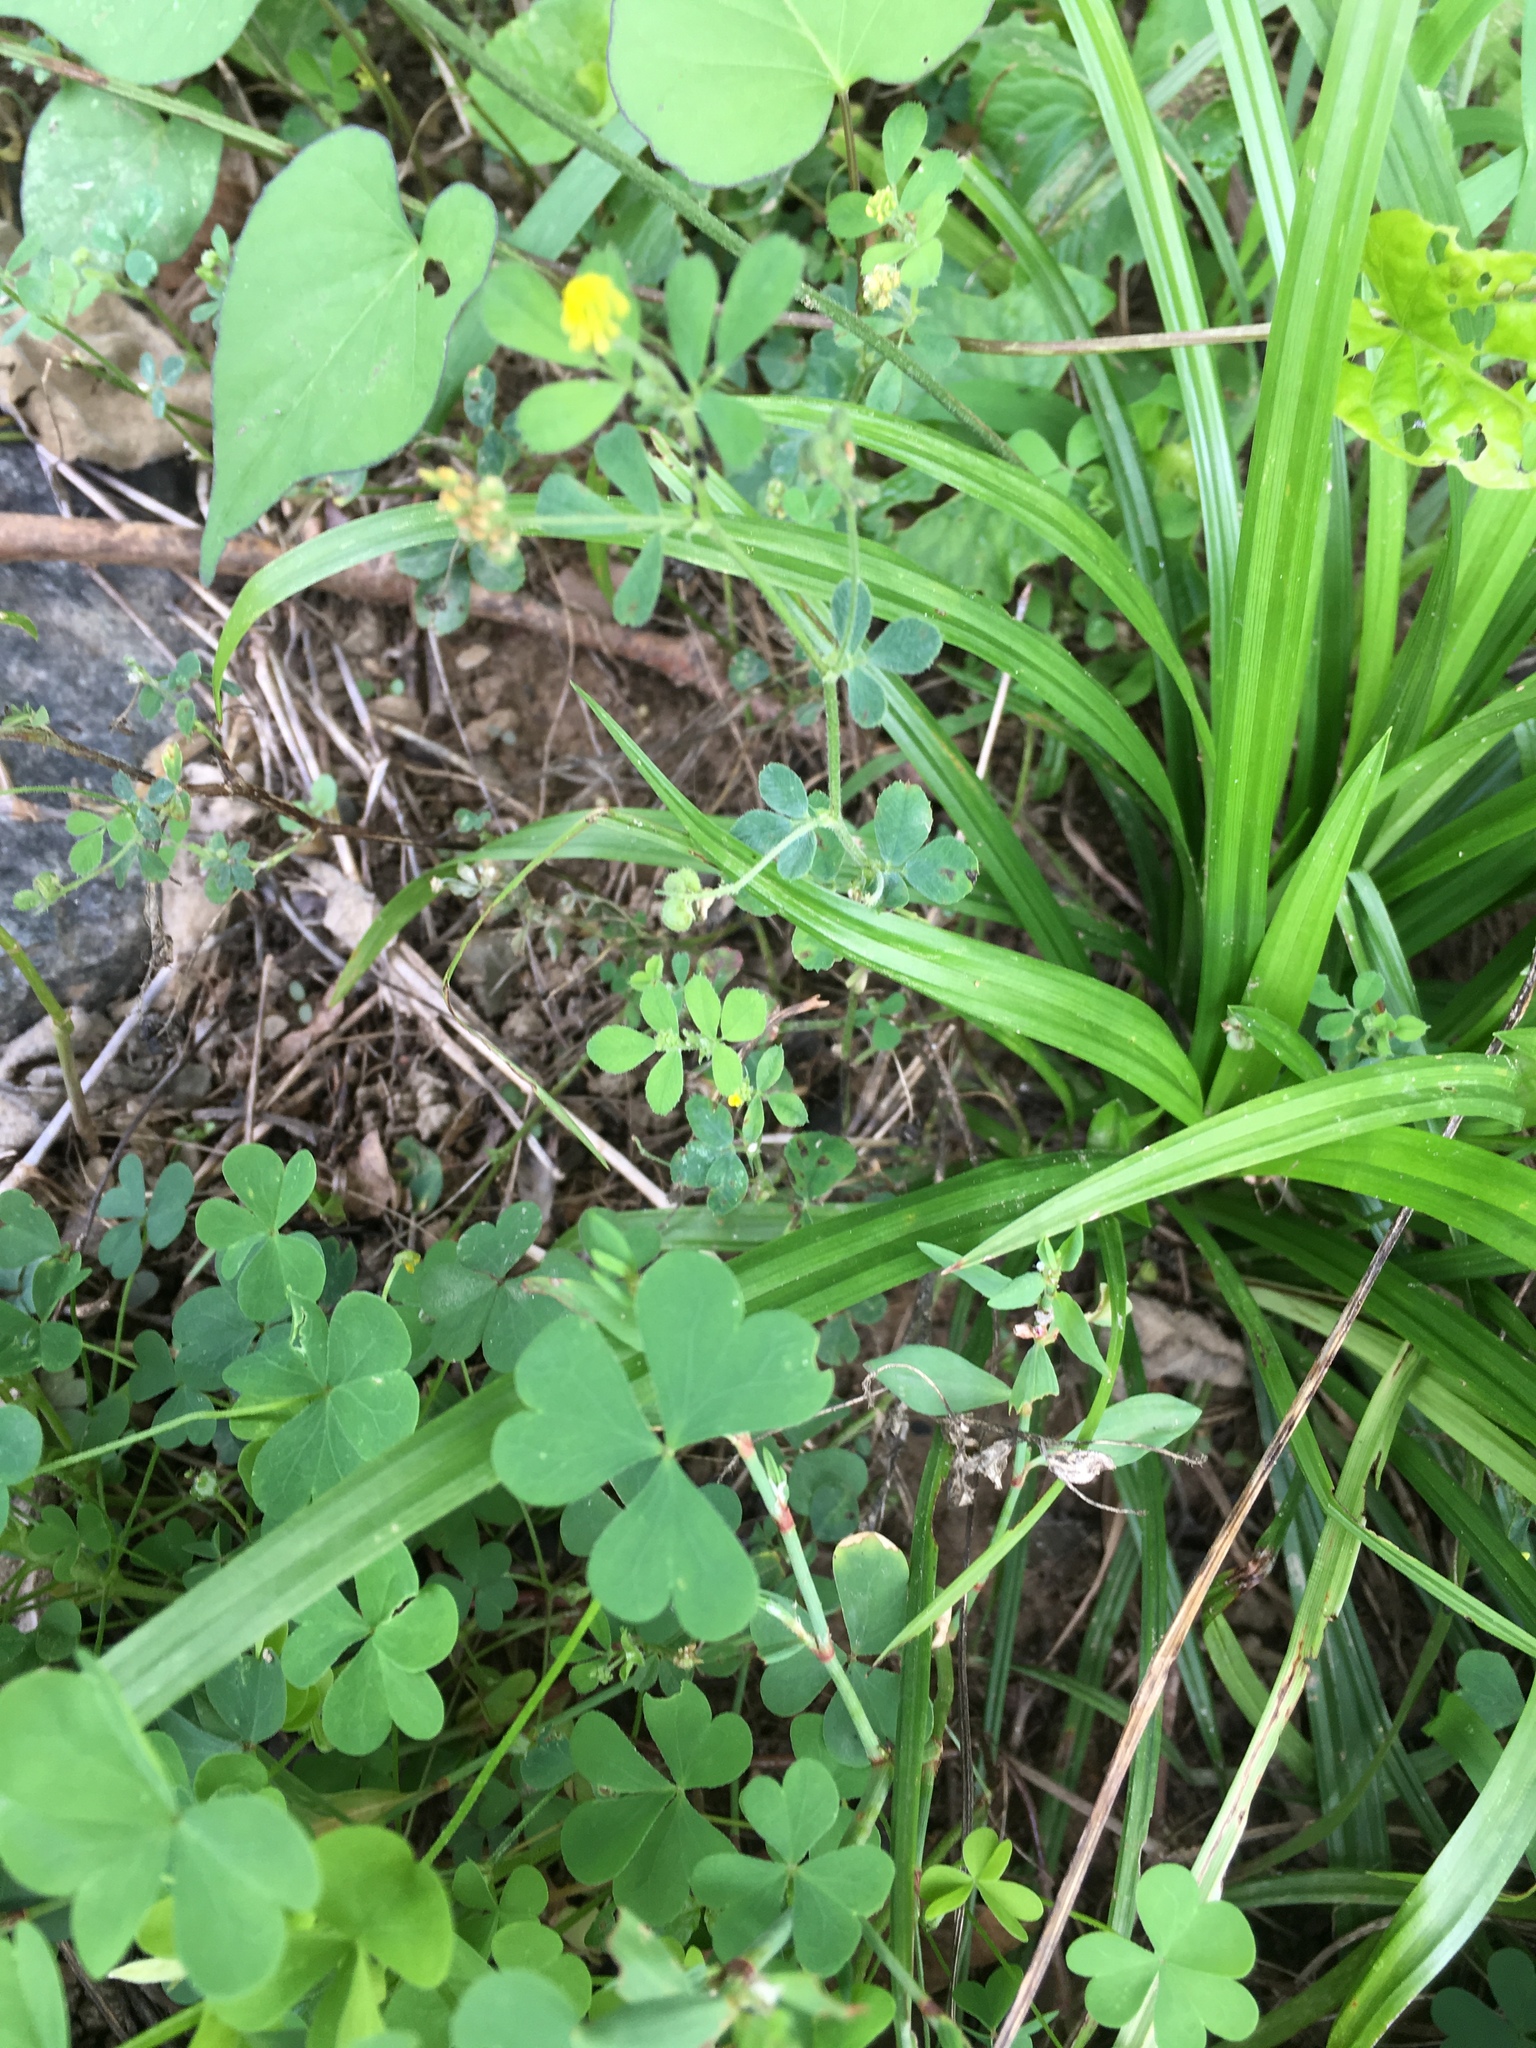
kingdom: Plantae
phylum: Tracheophyta
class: Magnoliopsida
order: Fabales
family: Fabaceae
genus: Medicago
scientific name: Medicago lupulina
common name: Black medick
